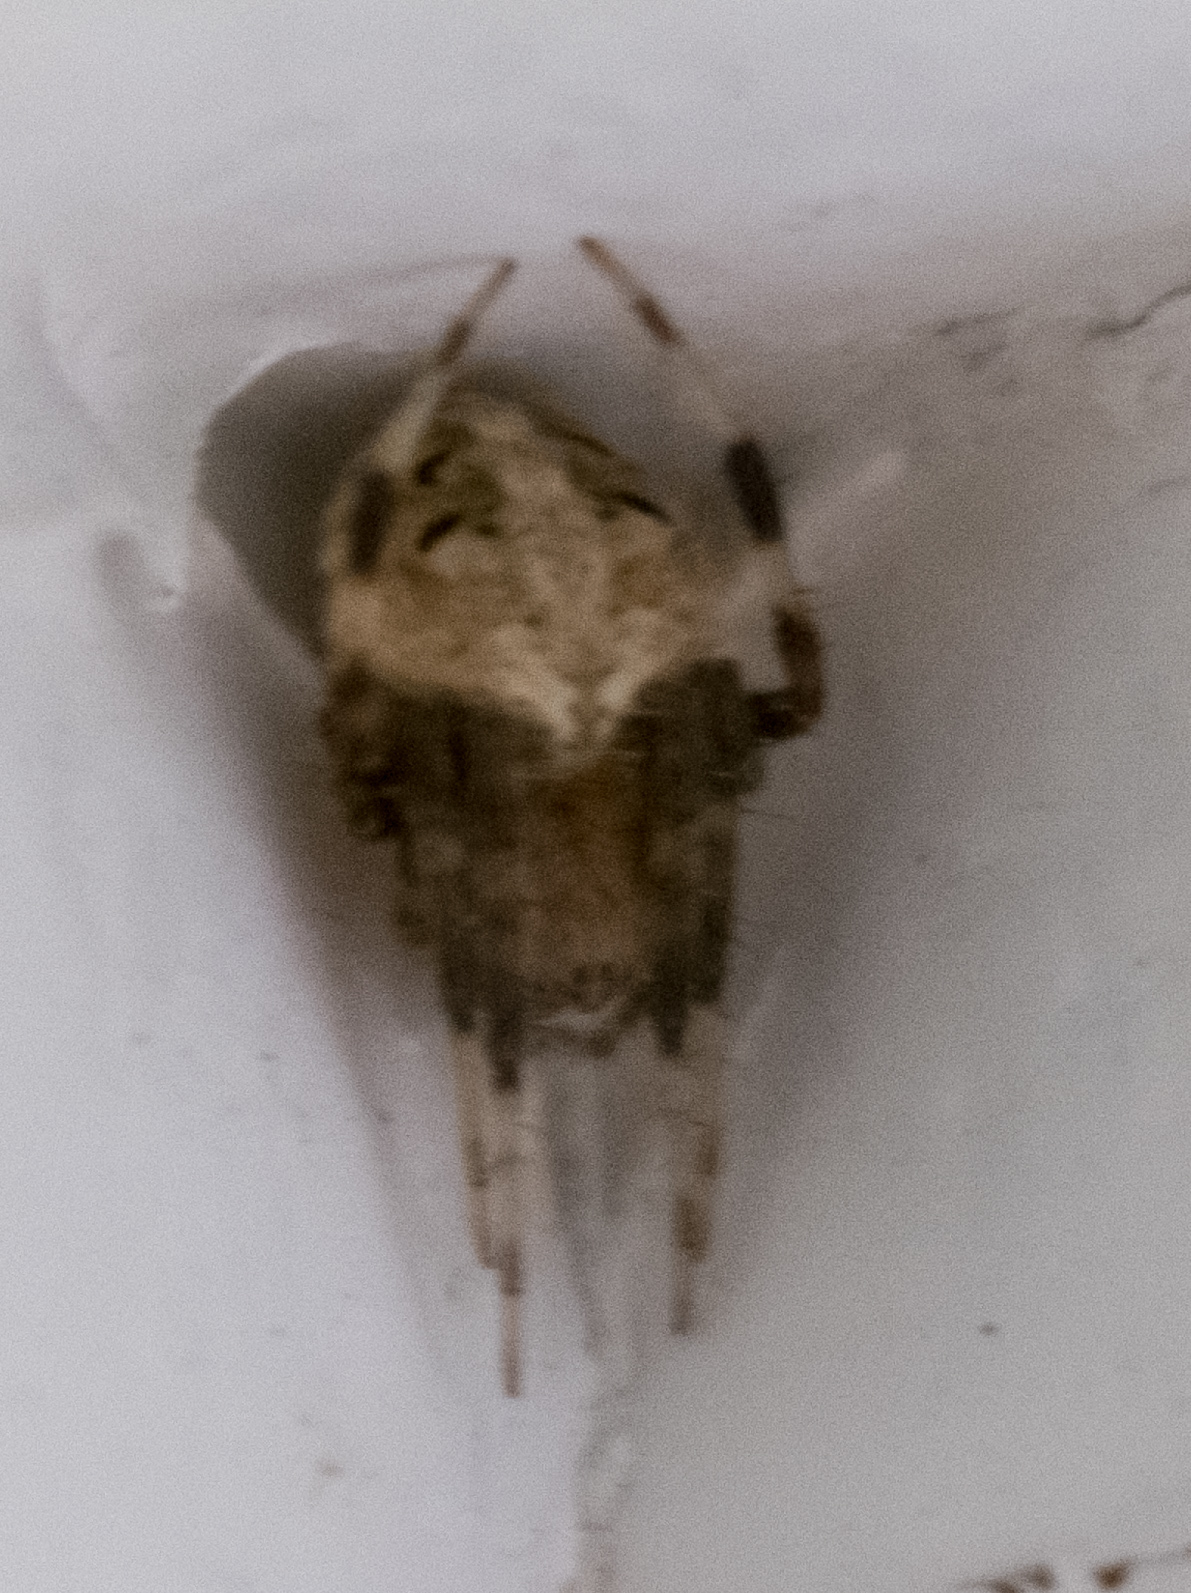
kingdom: Animalia
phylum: Arthropoda
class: Arachnida
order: Araneae
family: Araneidae
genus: Neoscona
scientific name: Neoscona arabesca
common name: Orb weavers
